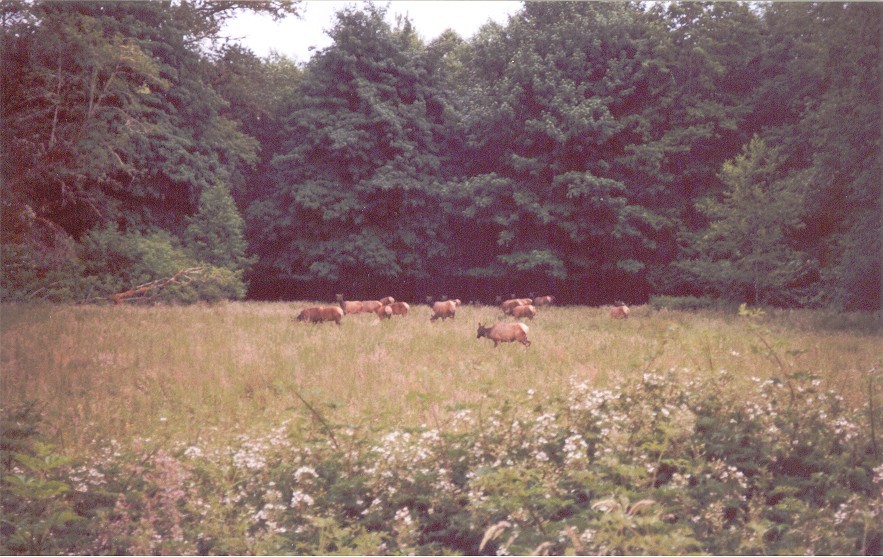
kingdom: Animalia
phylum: Chordata
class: Mammalia
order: Artiodactyla
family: Cervidae
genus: Cervus
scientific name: Cervus elaphus
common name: Red deer
